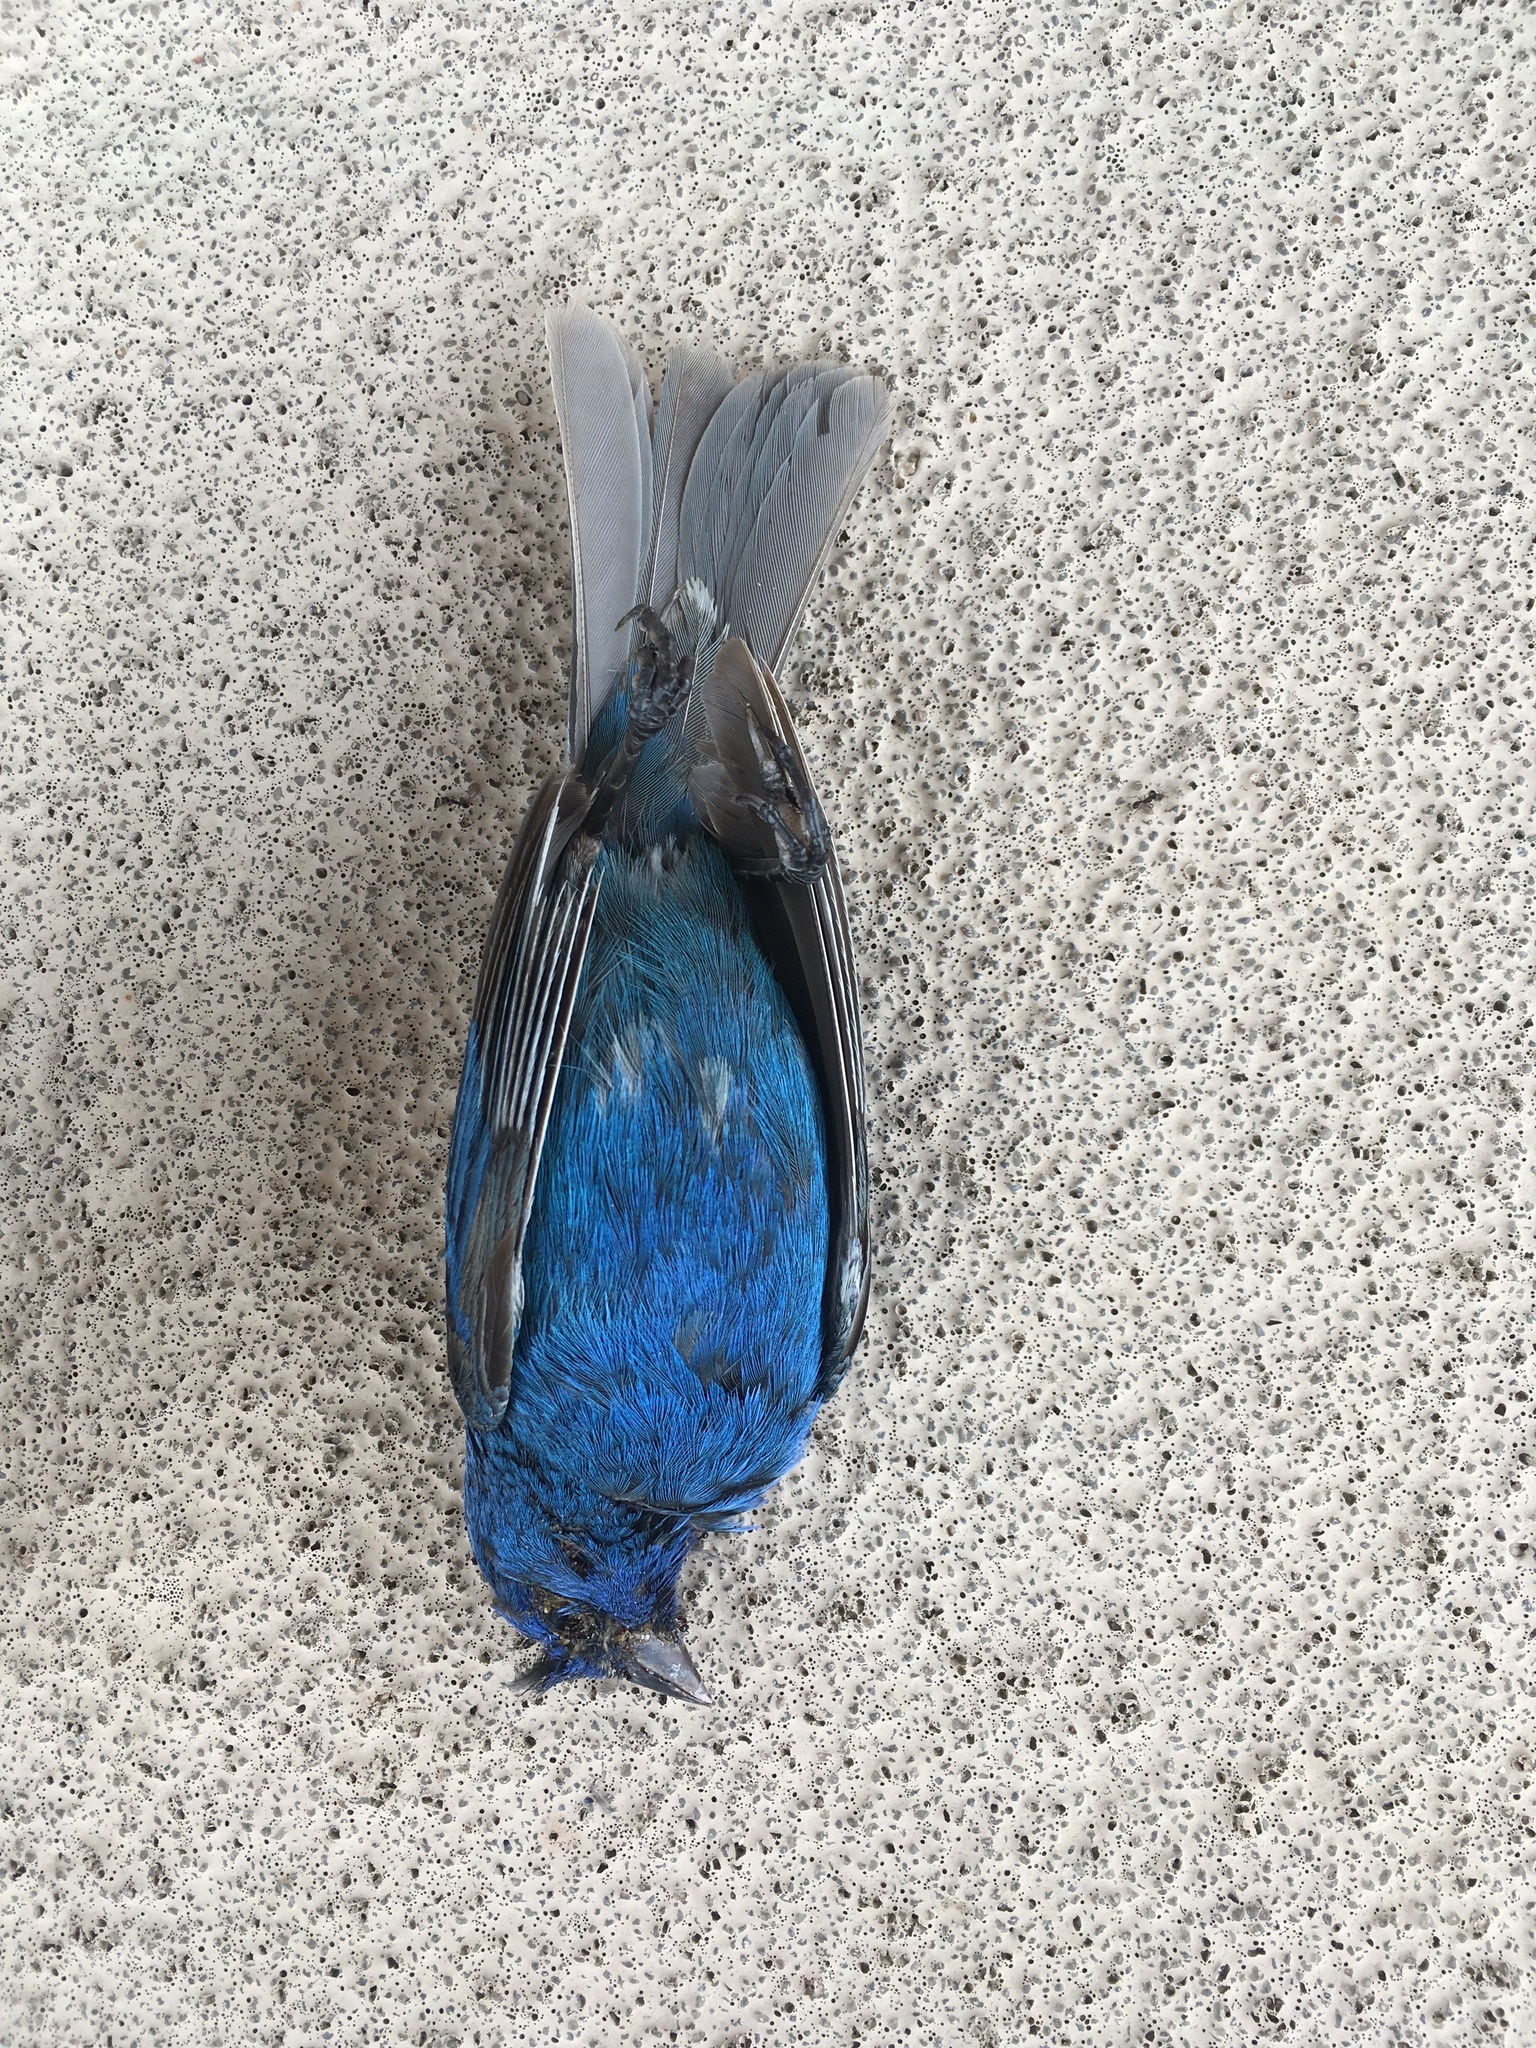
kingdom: Animalia
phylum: Chordata
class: Aves
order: Passeriformes
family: Cardinalidae
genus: Passerina
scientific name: Passerina cyanea
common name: Indigo bunting
